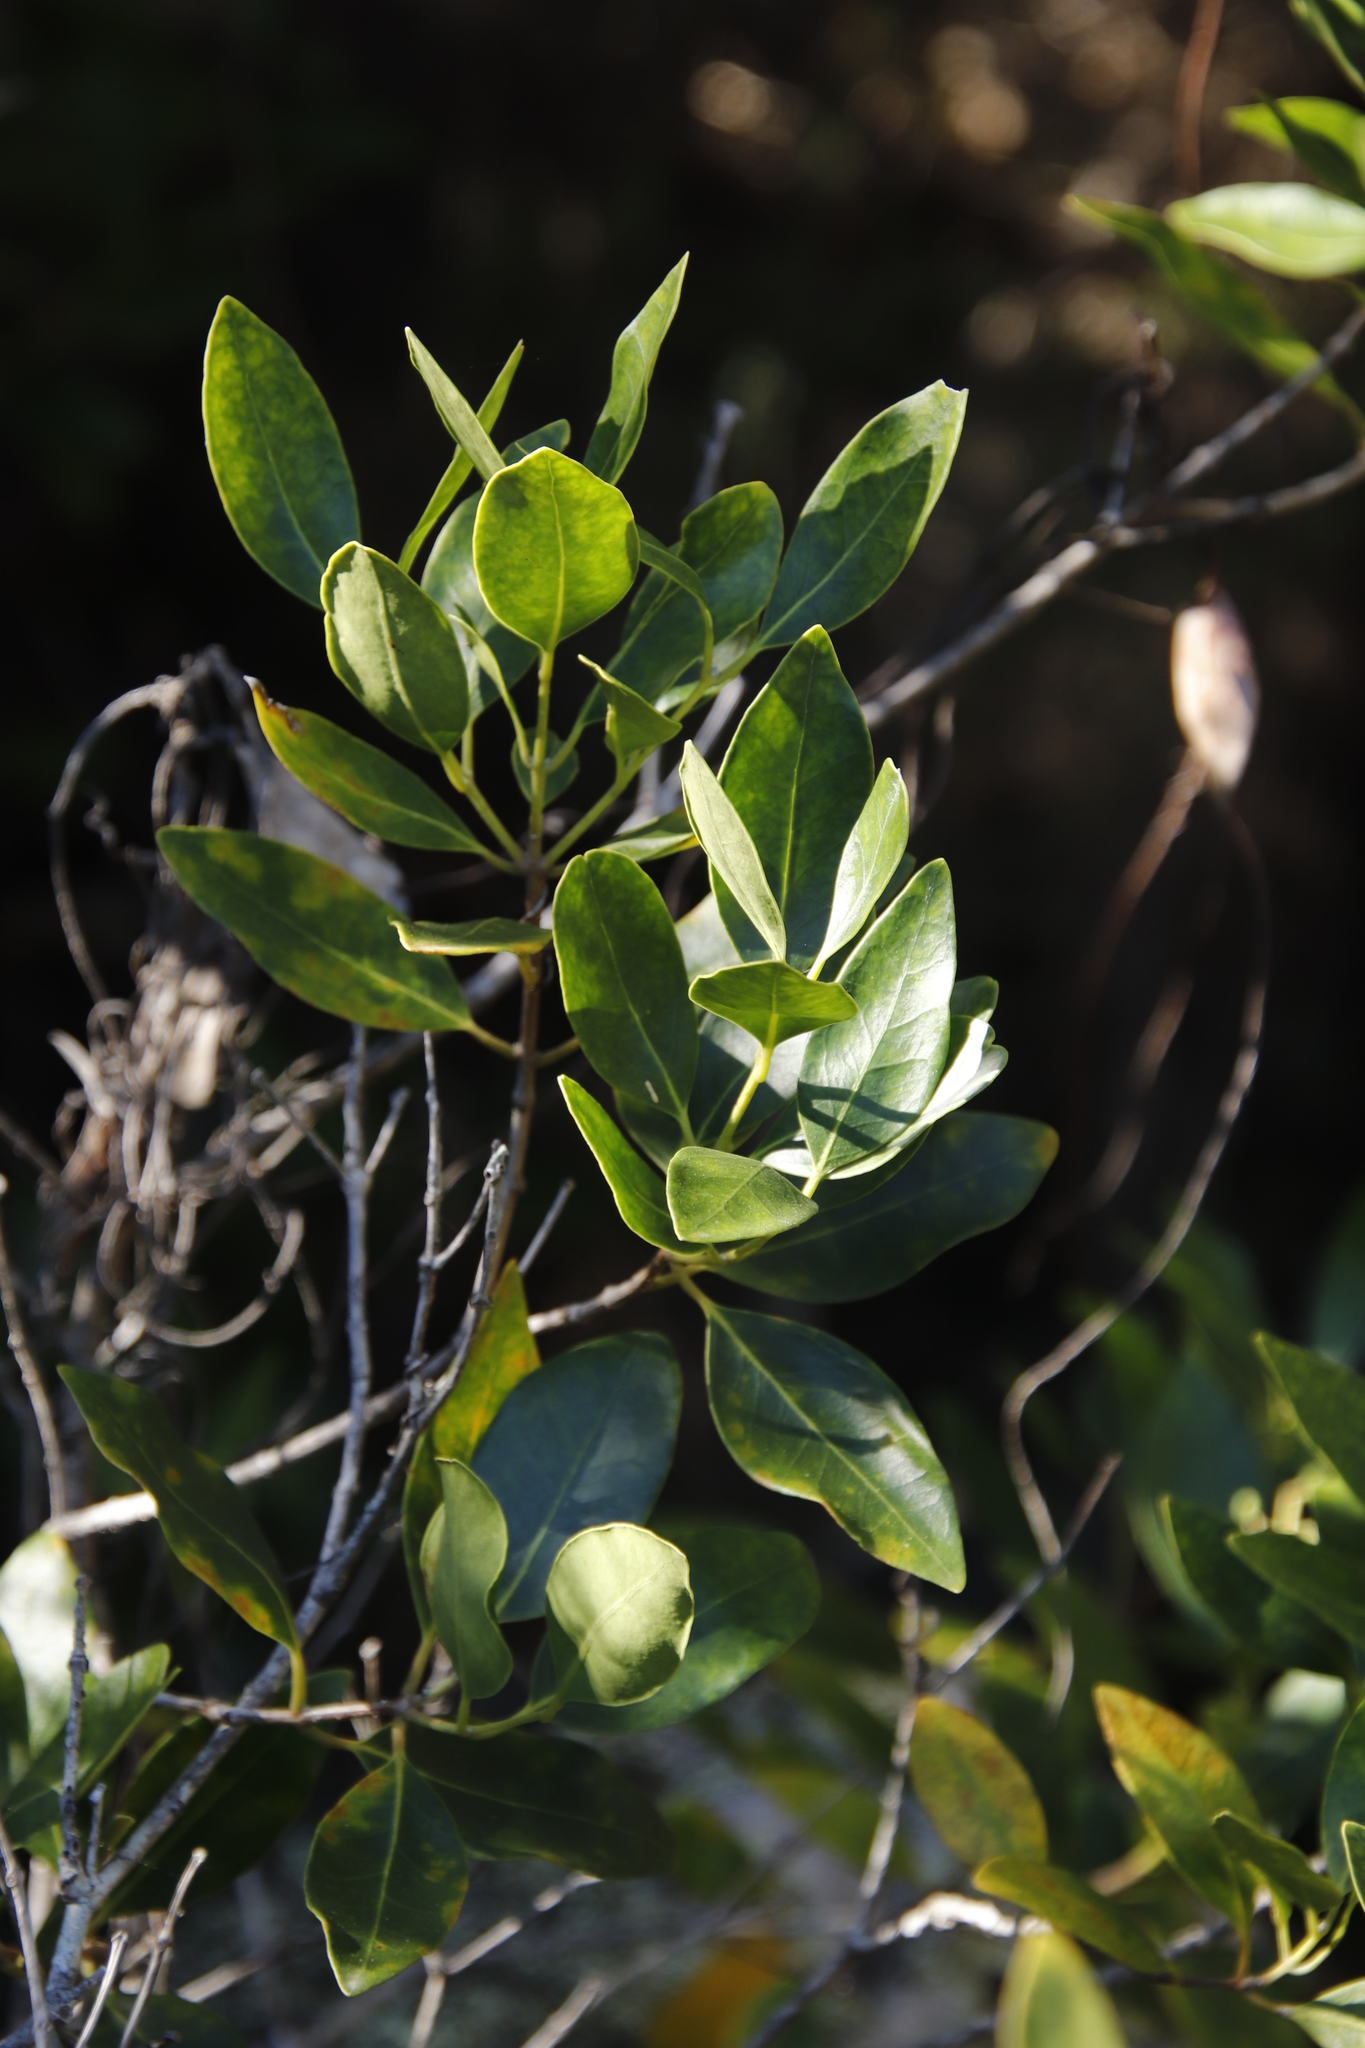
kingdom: Plantae
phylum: Tracheophyta
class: Magnoliopsida
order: Lamiales
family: Oleaceae
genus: Olea
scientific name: Olea capensis
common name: Black ironwood
